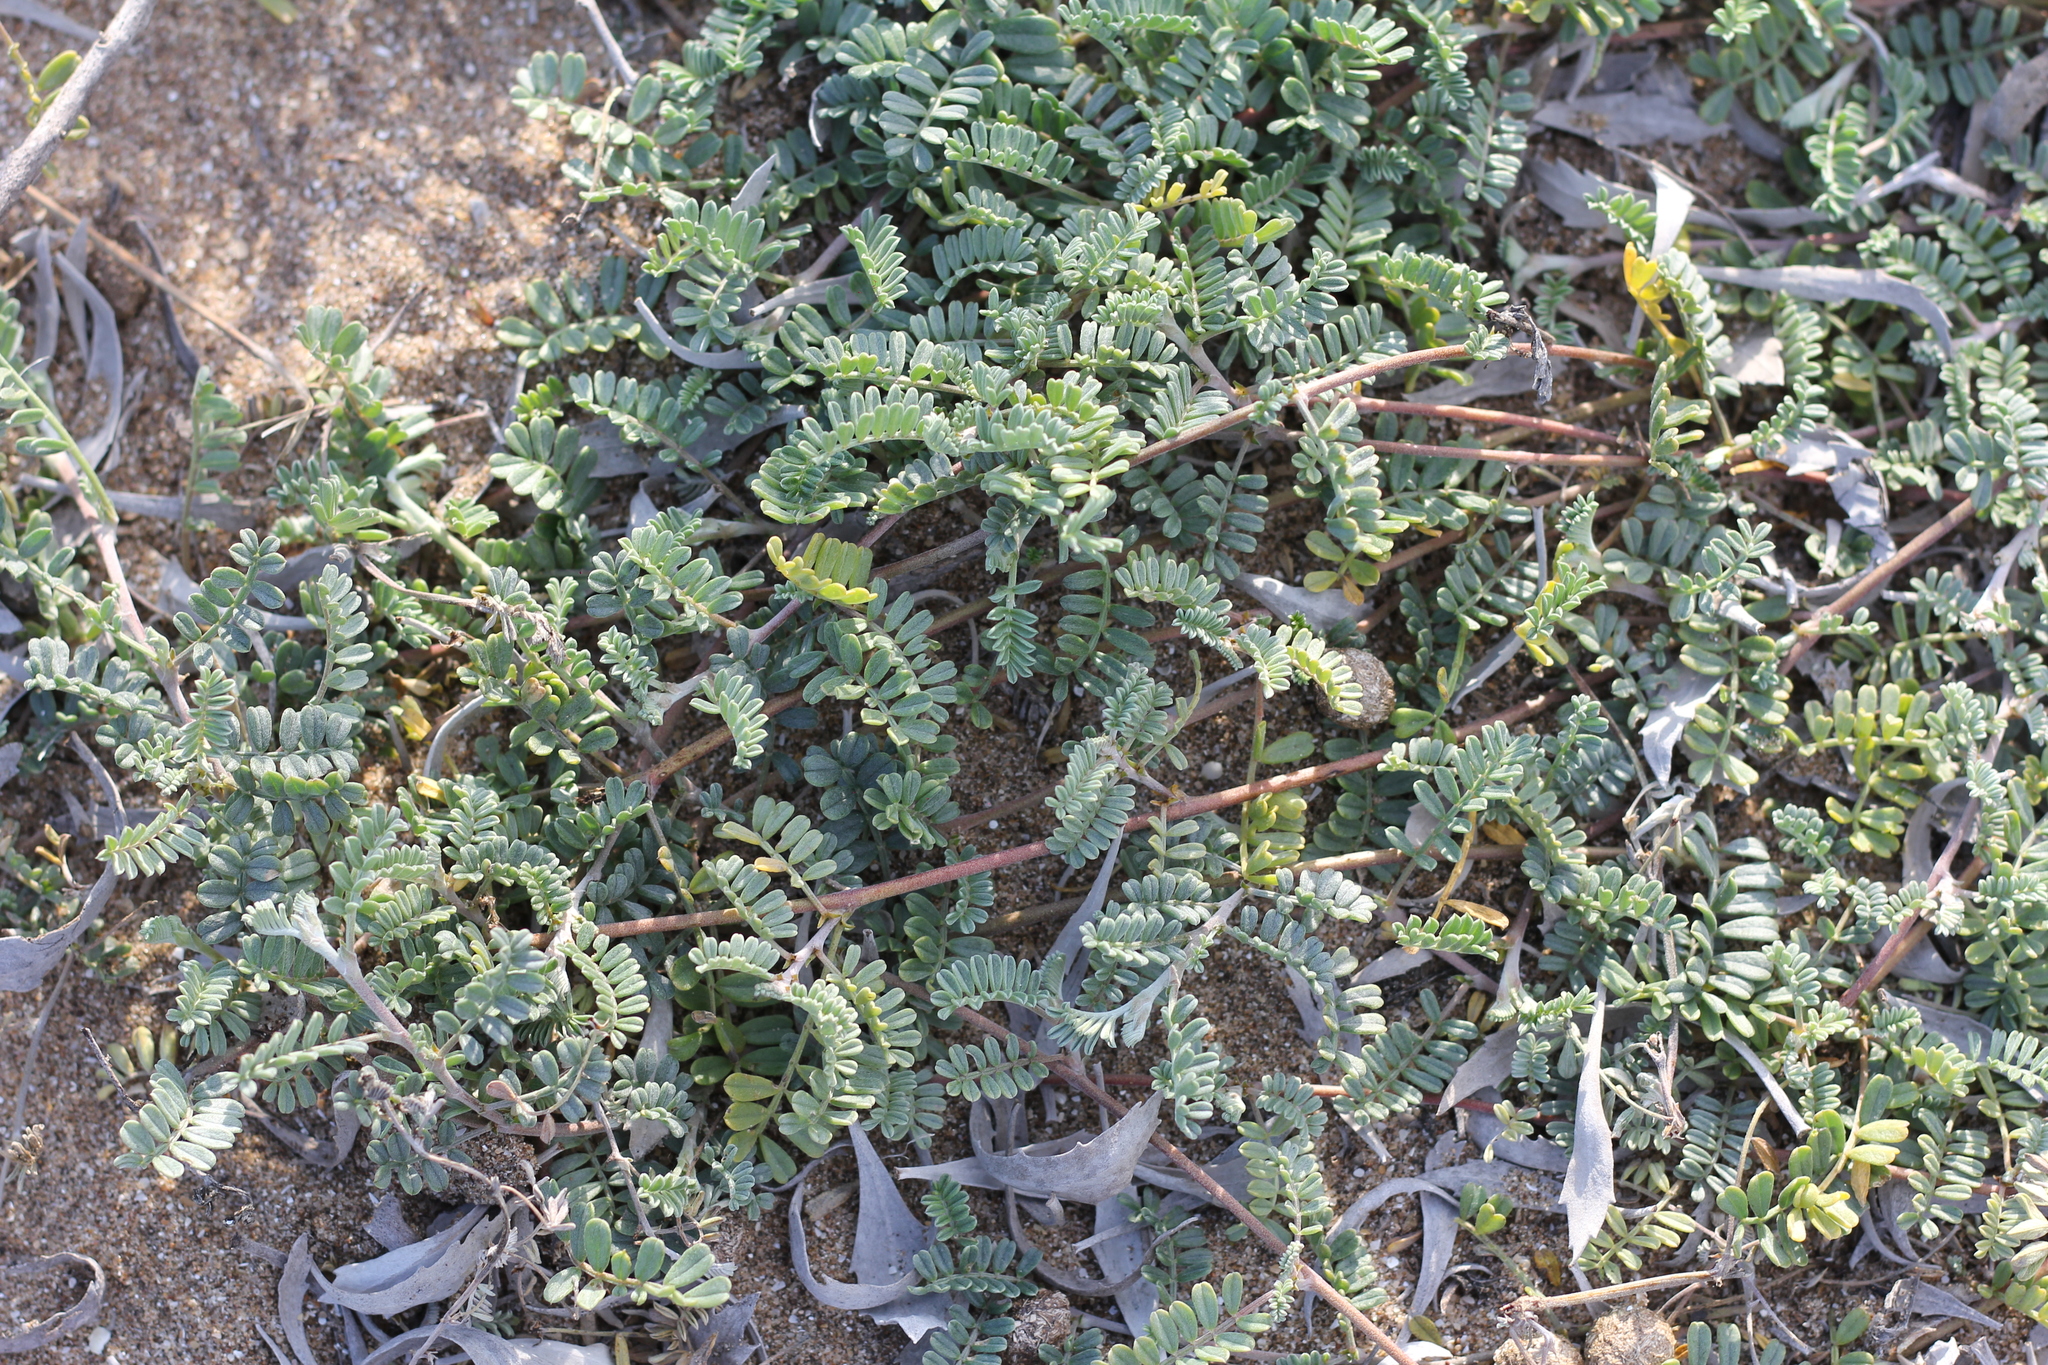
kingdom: Plantae
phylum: Tracheophyta
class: Magnoliopsida
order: Fabales
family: Fabaceae
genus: Adesmia
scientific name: Adesmia incana
